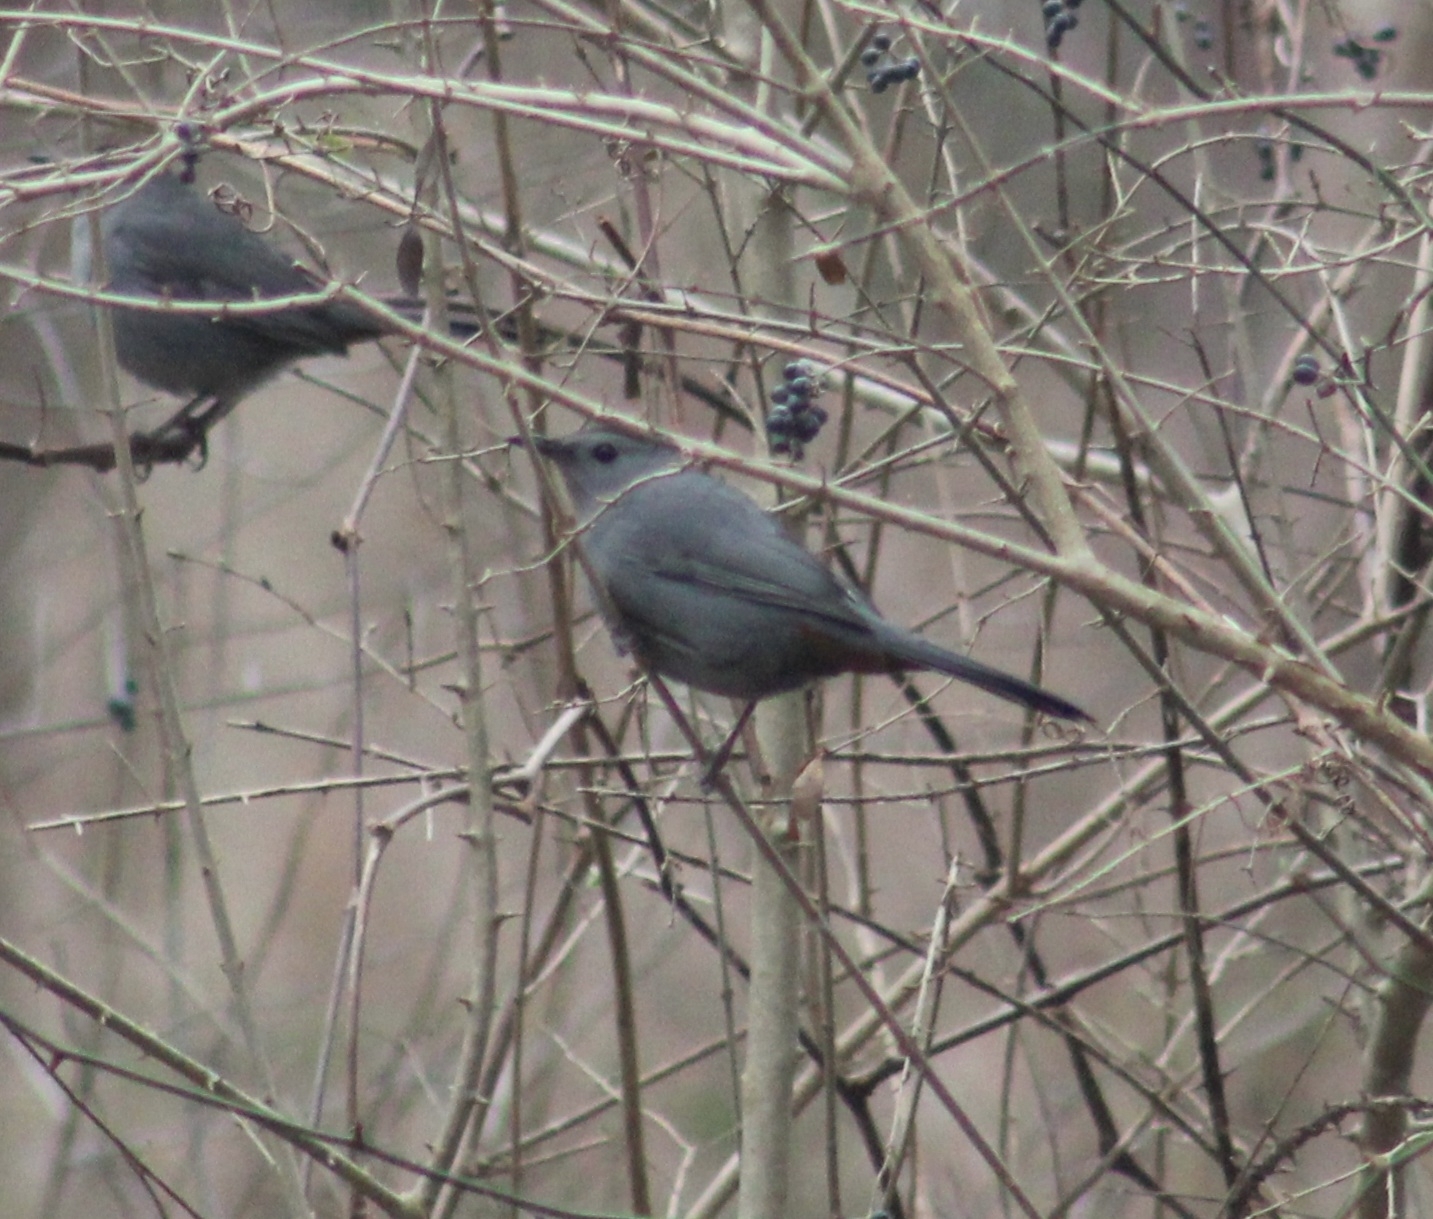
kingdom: Animalia
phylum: Chordata
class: Aves
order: Passeriformes
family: Mimidae
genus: Dumetella
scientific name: Dumetella carolinensis
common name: Gray catbird
